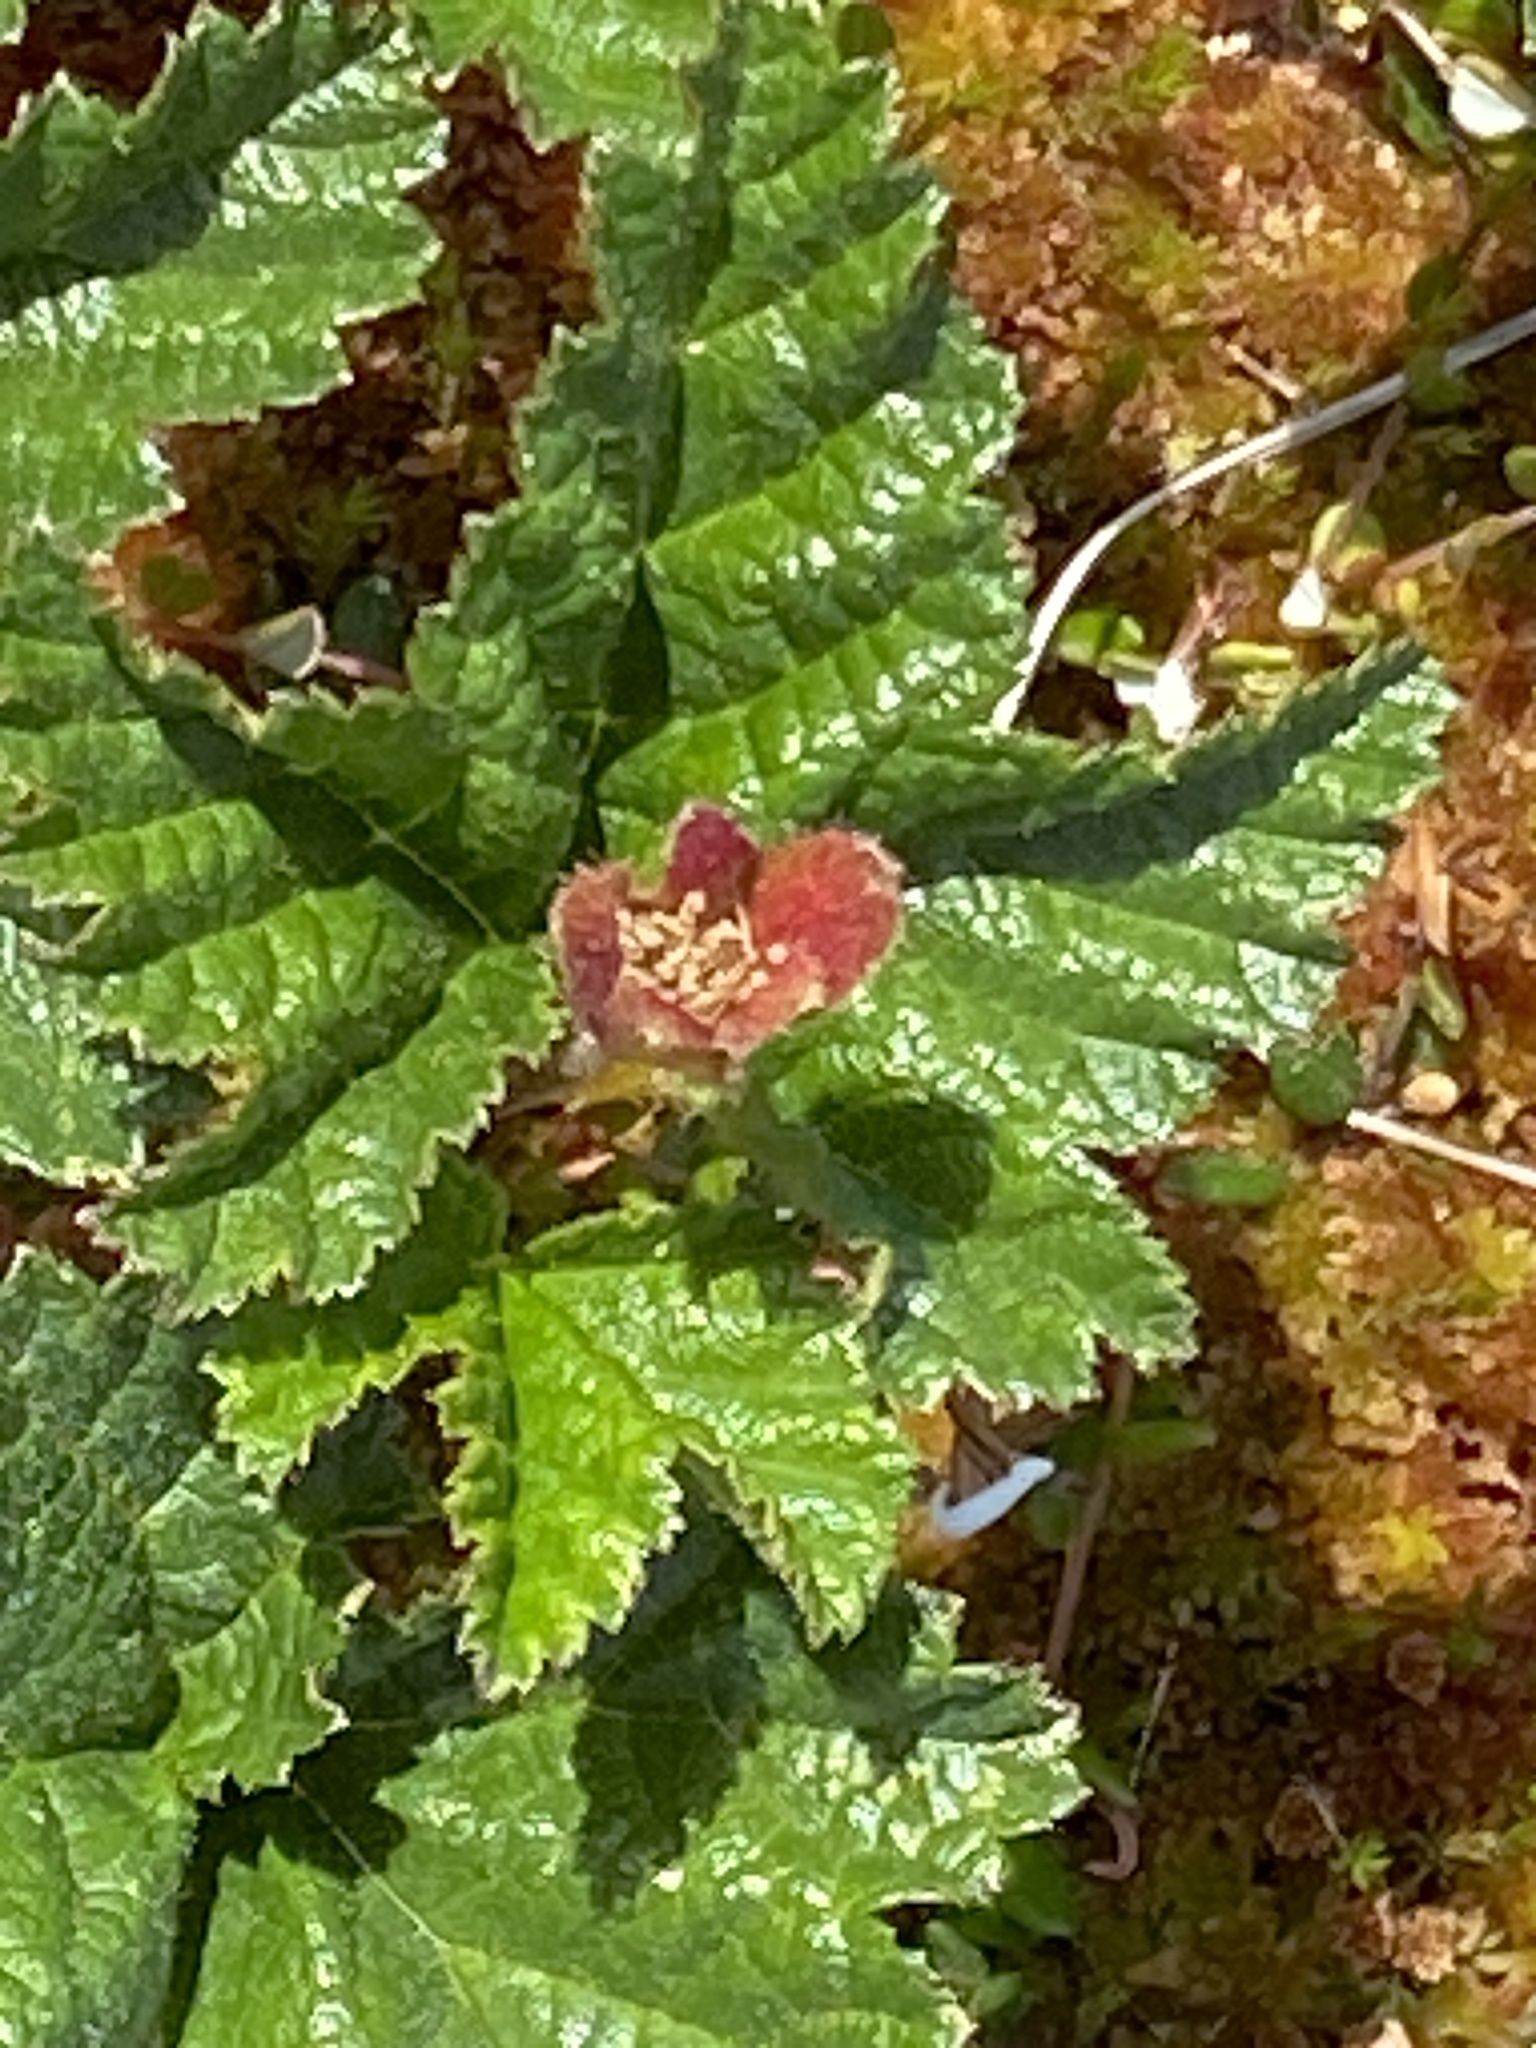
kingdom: Plantae
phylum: Tracheophyta
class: Magnoliopsida
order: Rosales
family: Rosaceae
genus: Rubus
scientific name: Rubus chamaemorus
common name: Cloudberry
